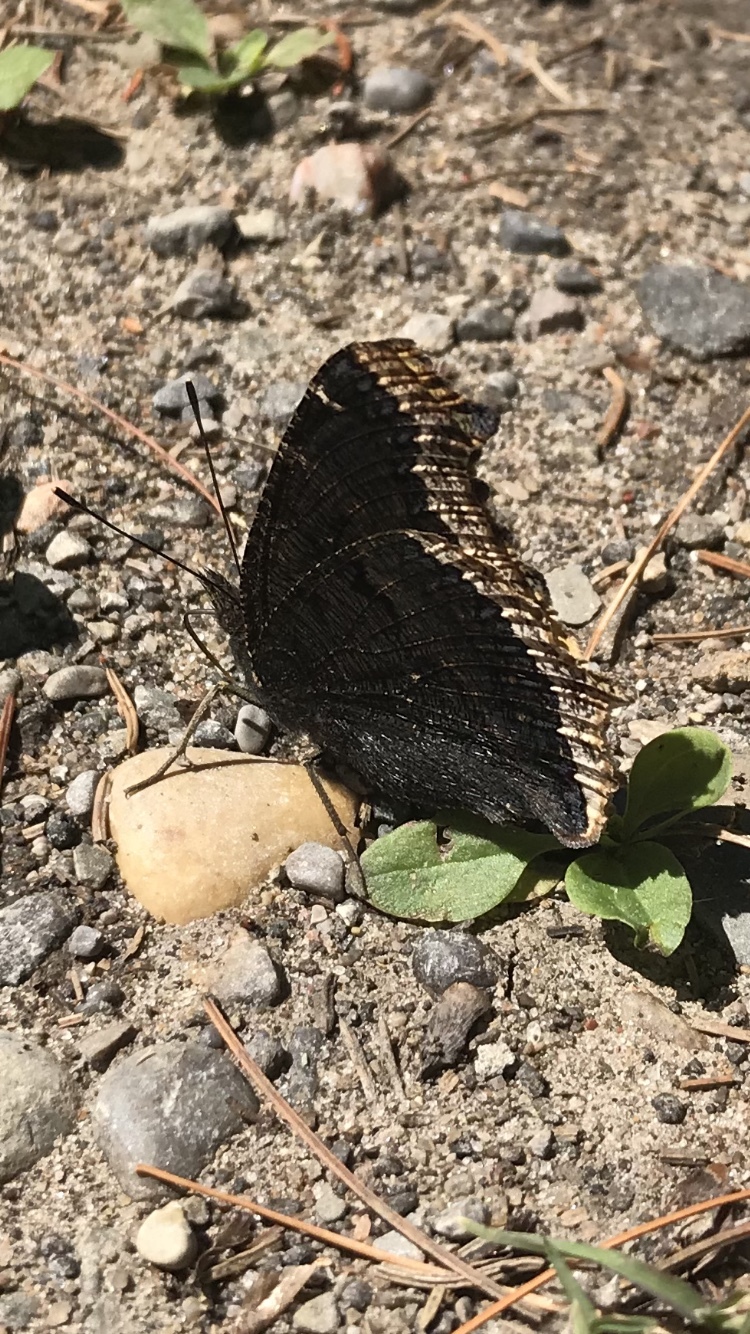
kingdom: Animalia
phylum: Arthropoda
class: Insecta
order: Lepidoptera
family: Nymphalidae
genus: Nymphalis
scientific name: Nymphalis antiopa
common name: Camberwell beauty
